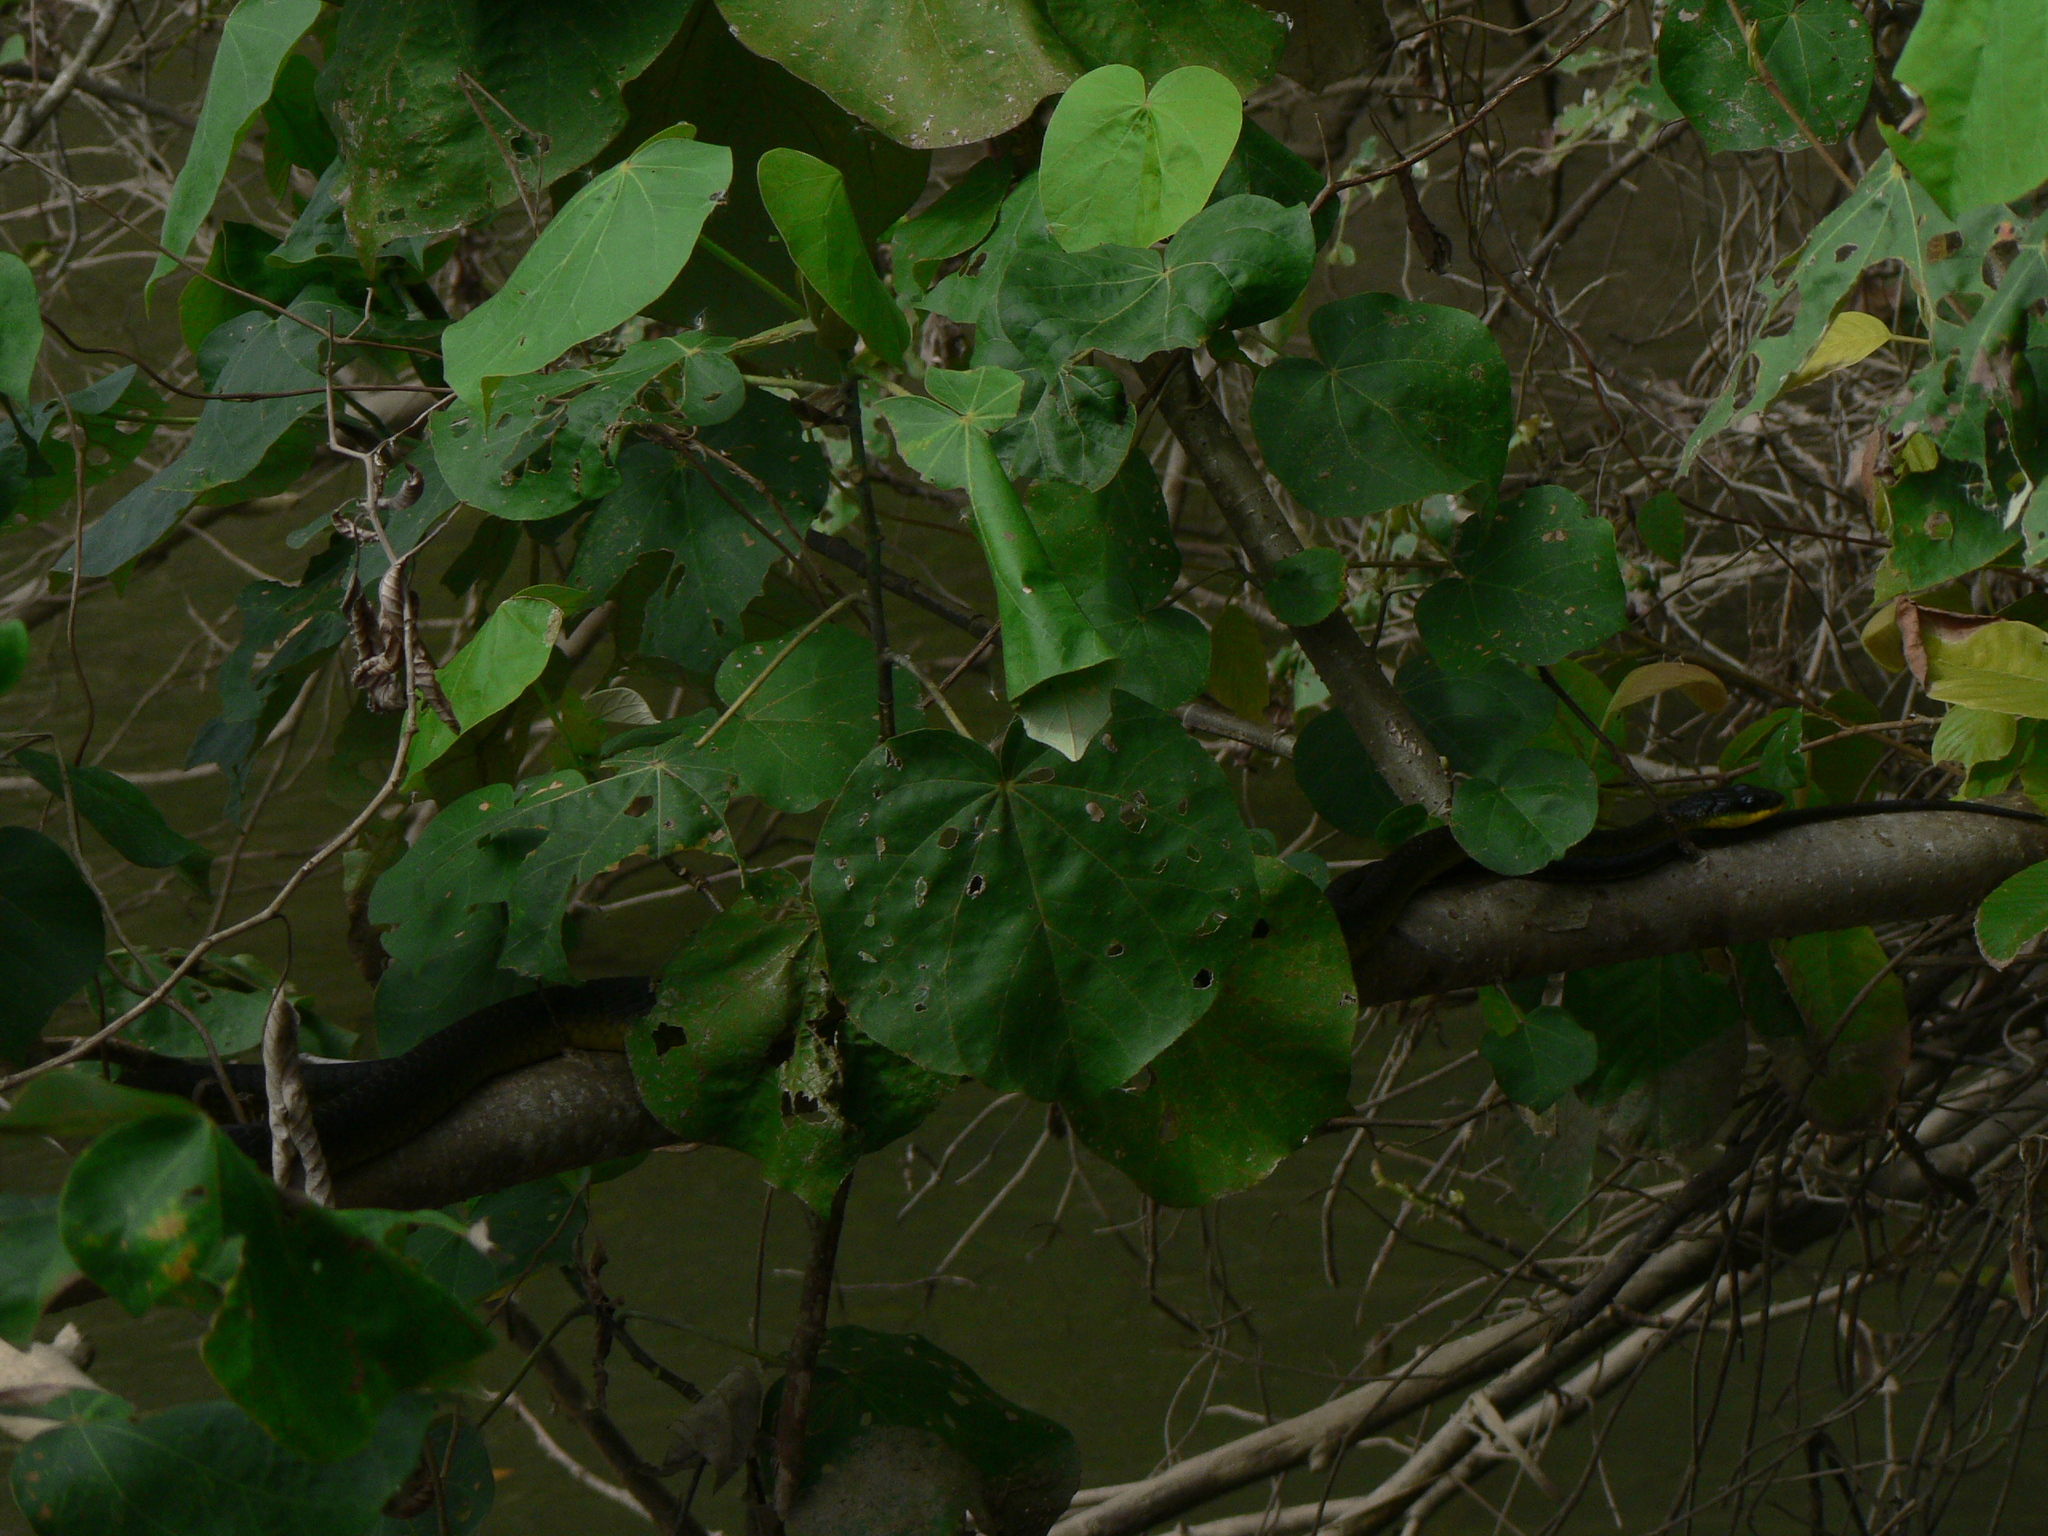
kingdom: Animalia
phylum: Chordata
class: Squamata
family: Colubridae
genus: Dendrelaphis
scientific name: Dendrelaphis punctulatus
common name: Common tree snake
